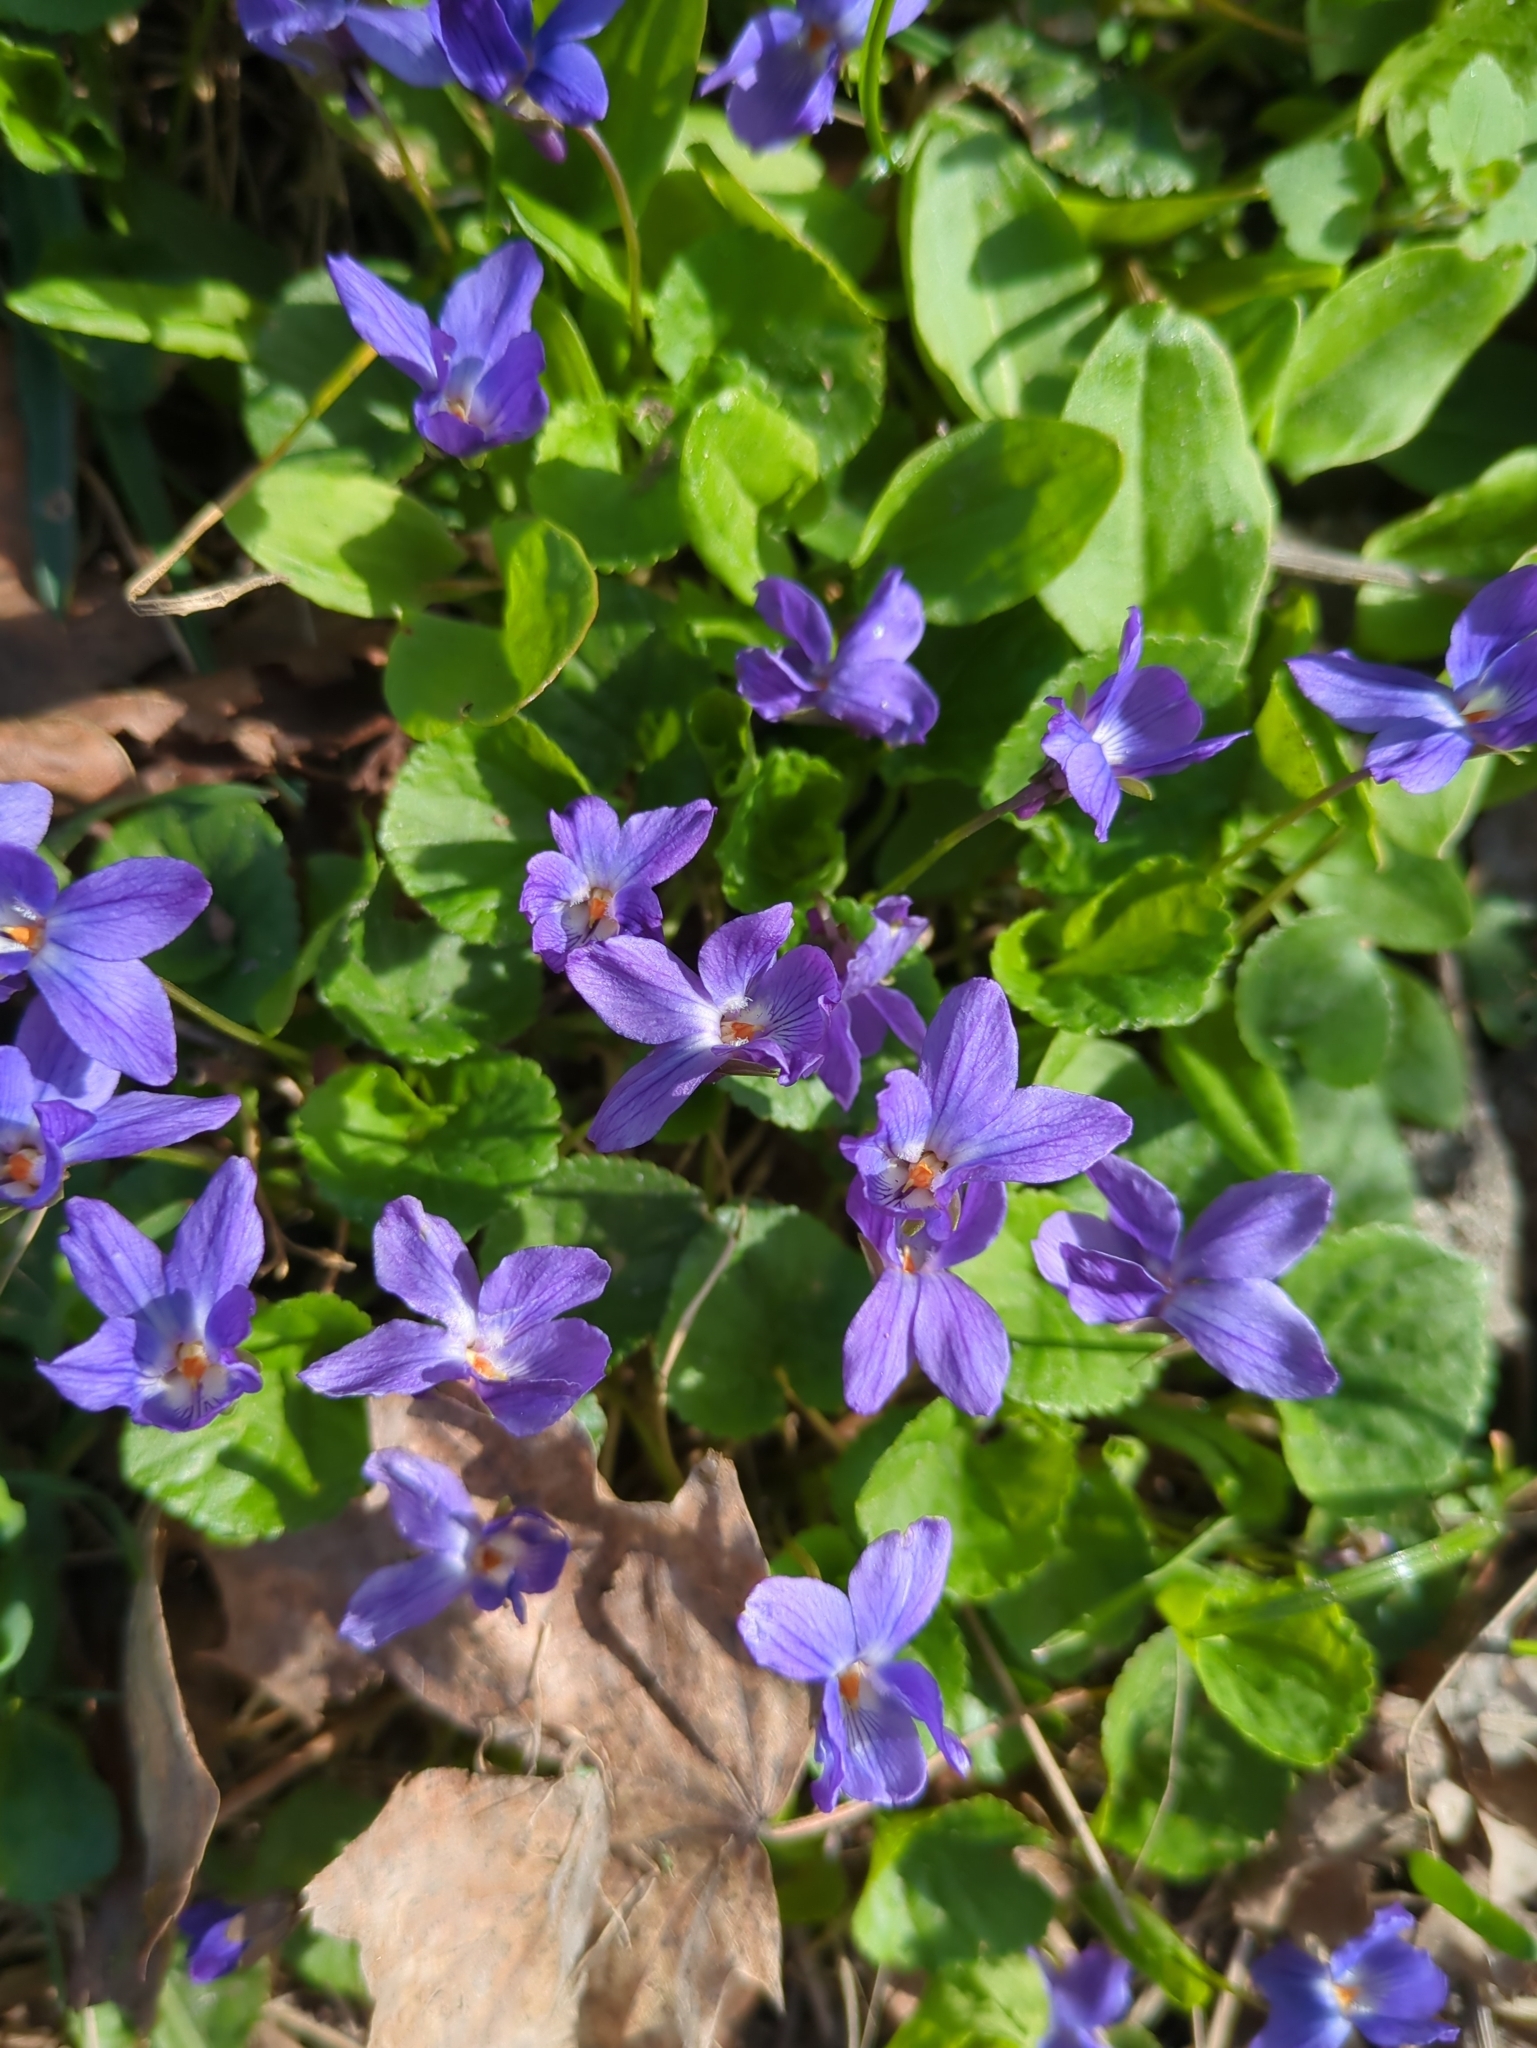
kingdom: Plantae
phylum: Tracheophyta
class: Magnoliopsida
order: Malpighiales
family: Violaceae
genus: Viola
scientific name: Viola odorata
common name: Sweet violet
